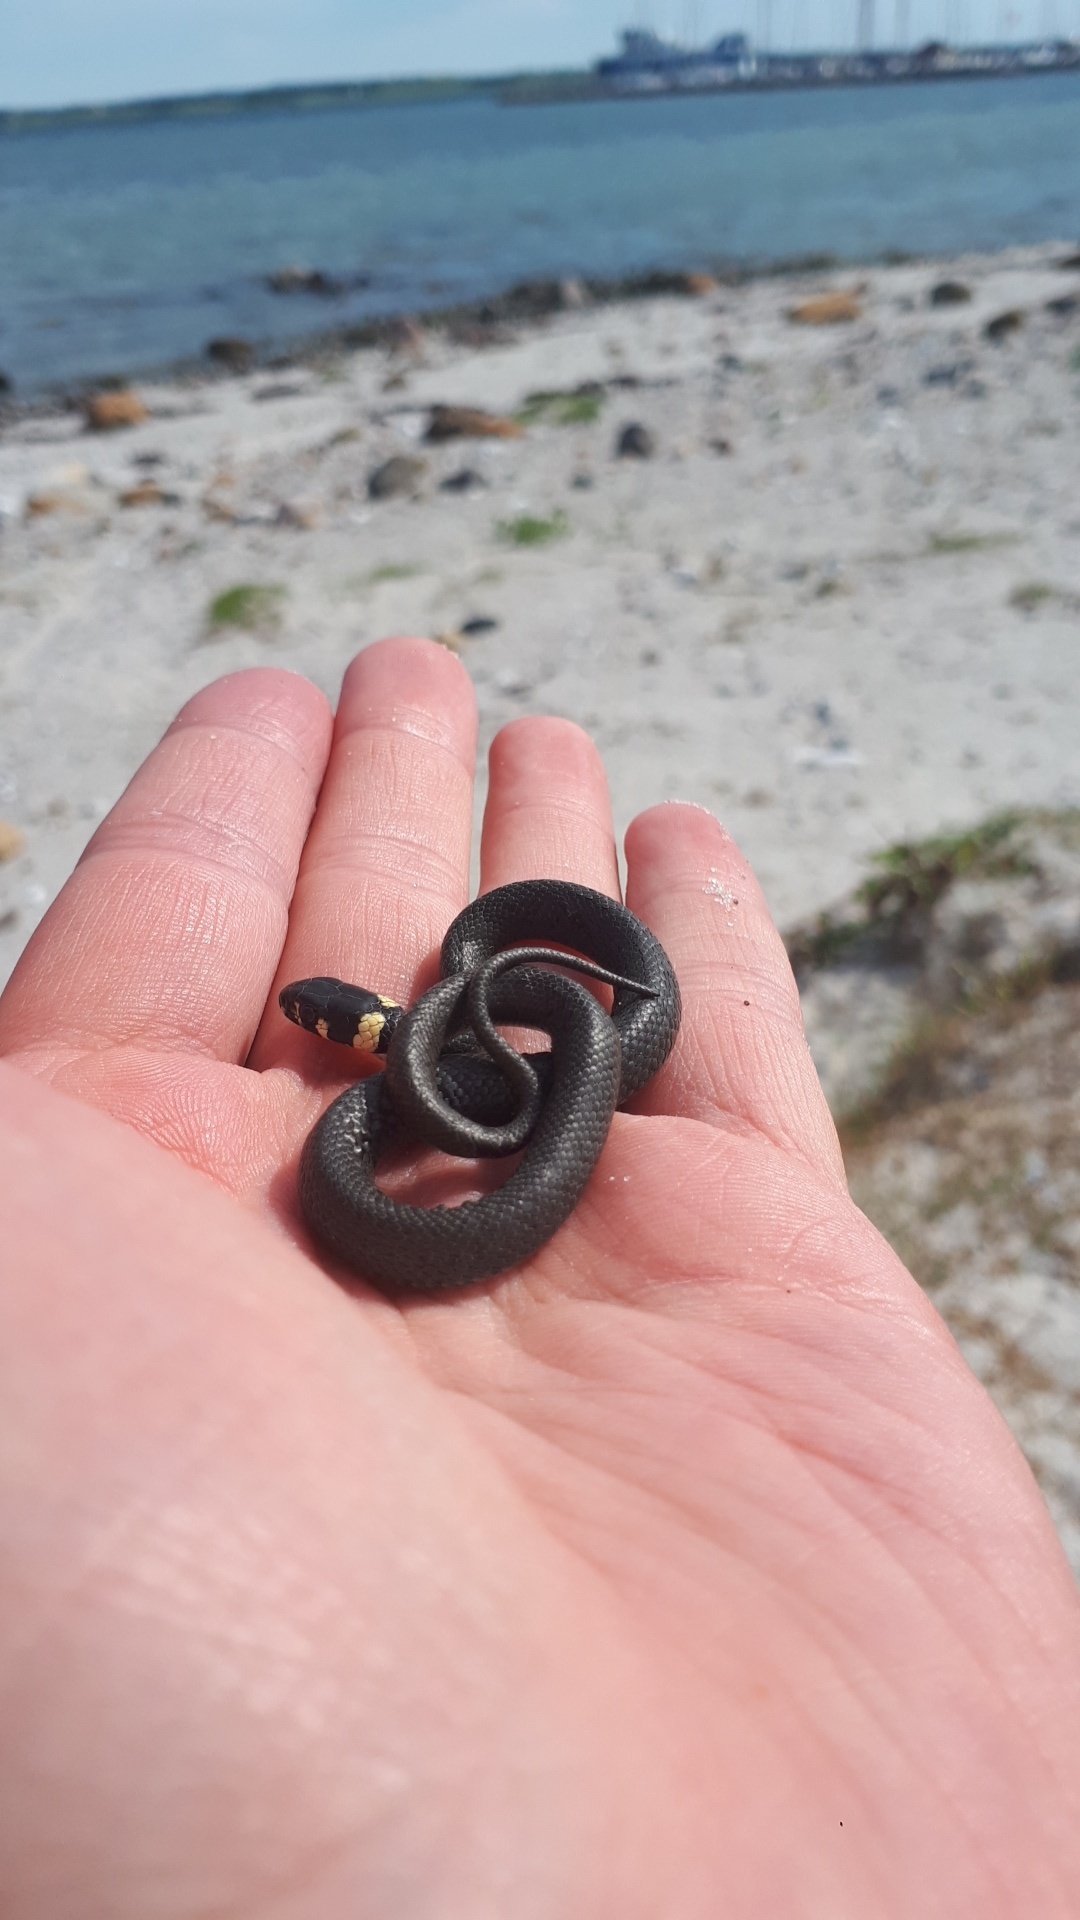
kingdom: Animalia
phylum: Chordata
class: Squamata
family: Colubridae
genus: Natrix
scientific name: Natrix natrix
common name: Grass snake
